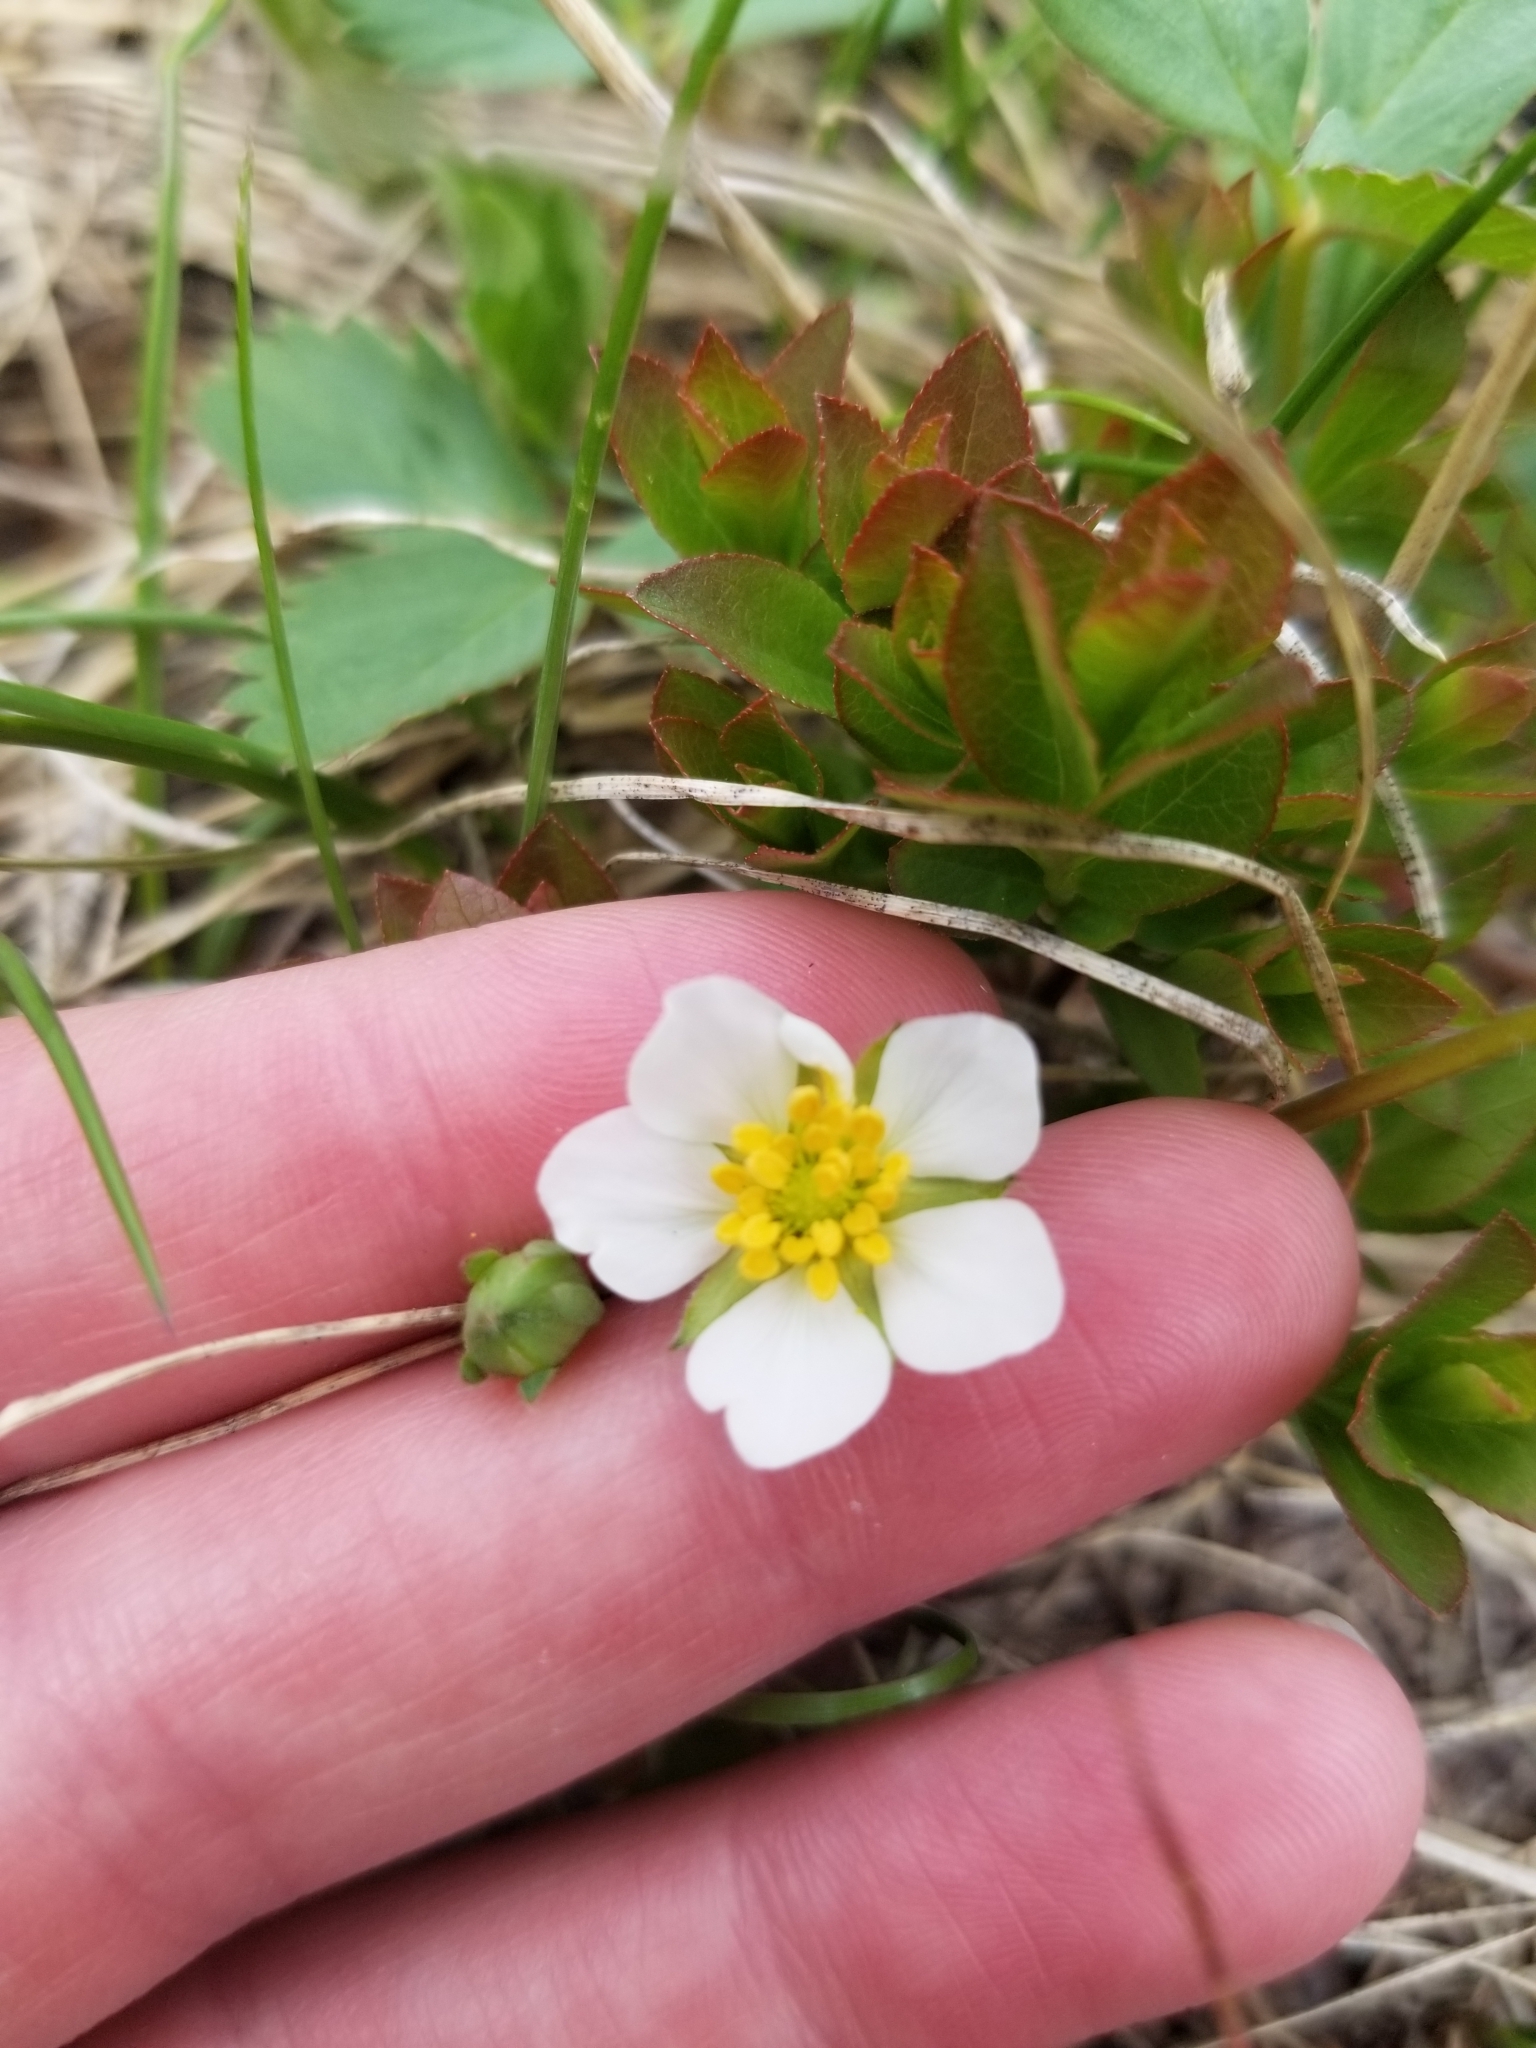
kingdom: Plantae
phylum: Tracheophyta
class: Magnoliopsida
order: Rosales
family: Rosaceae
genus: Fragaria
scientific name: Fragaria virginiana
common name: Thickleaved wild strawberry
